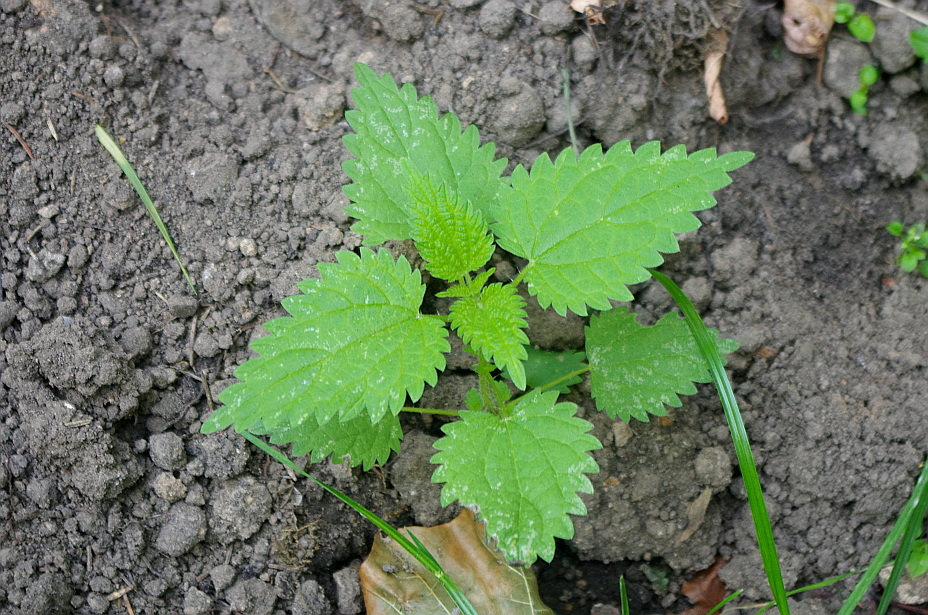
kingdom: Plantae
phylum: Tracheophyta
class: Magnoliopsida
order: Rosales
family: Urticaceae
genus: Urtica
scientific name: Urtica dioica
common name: Common nettle
